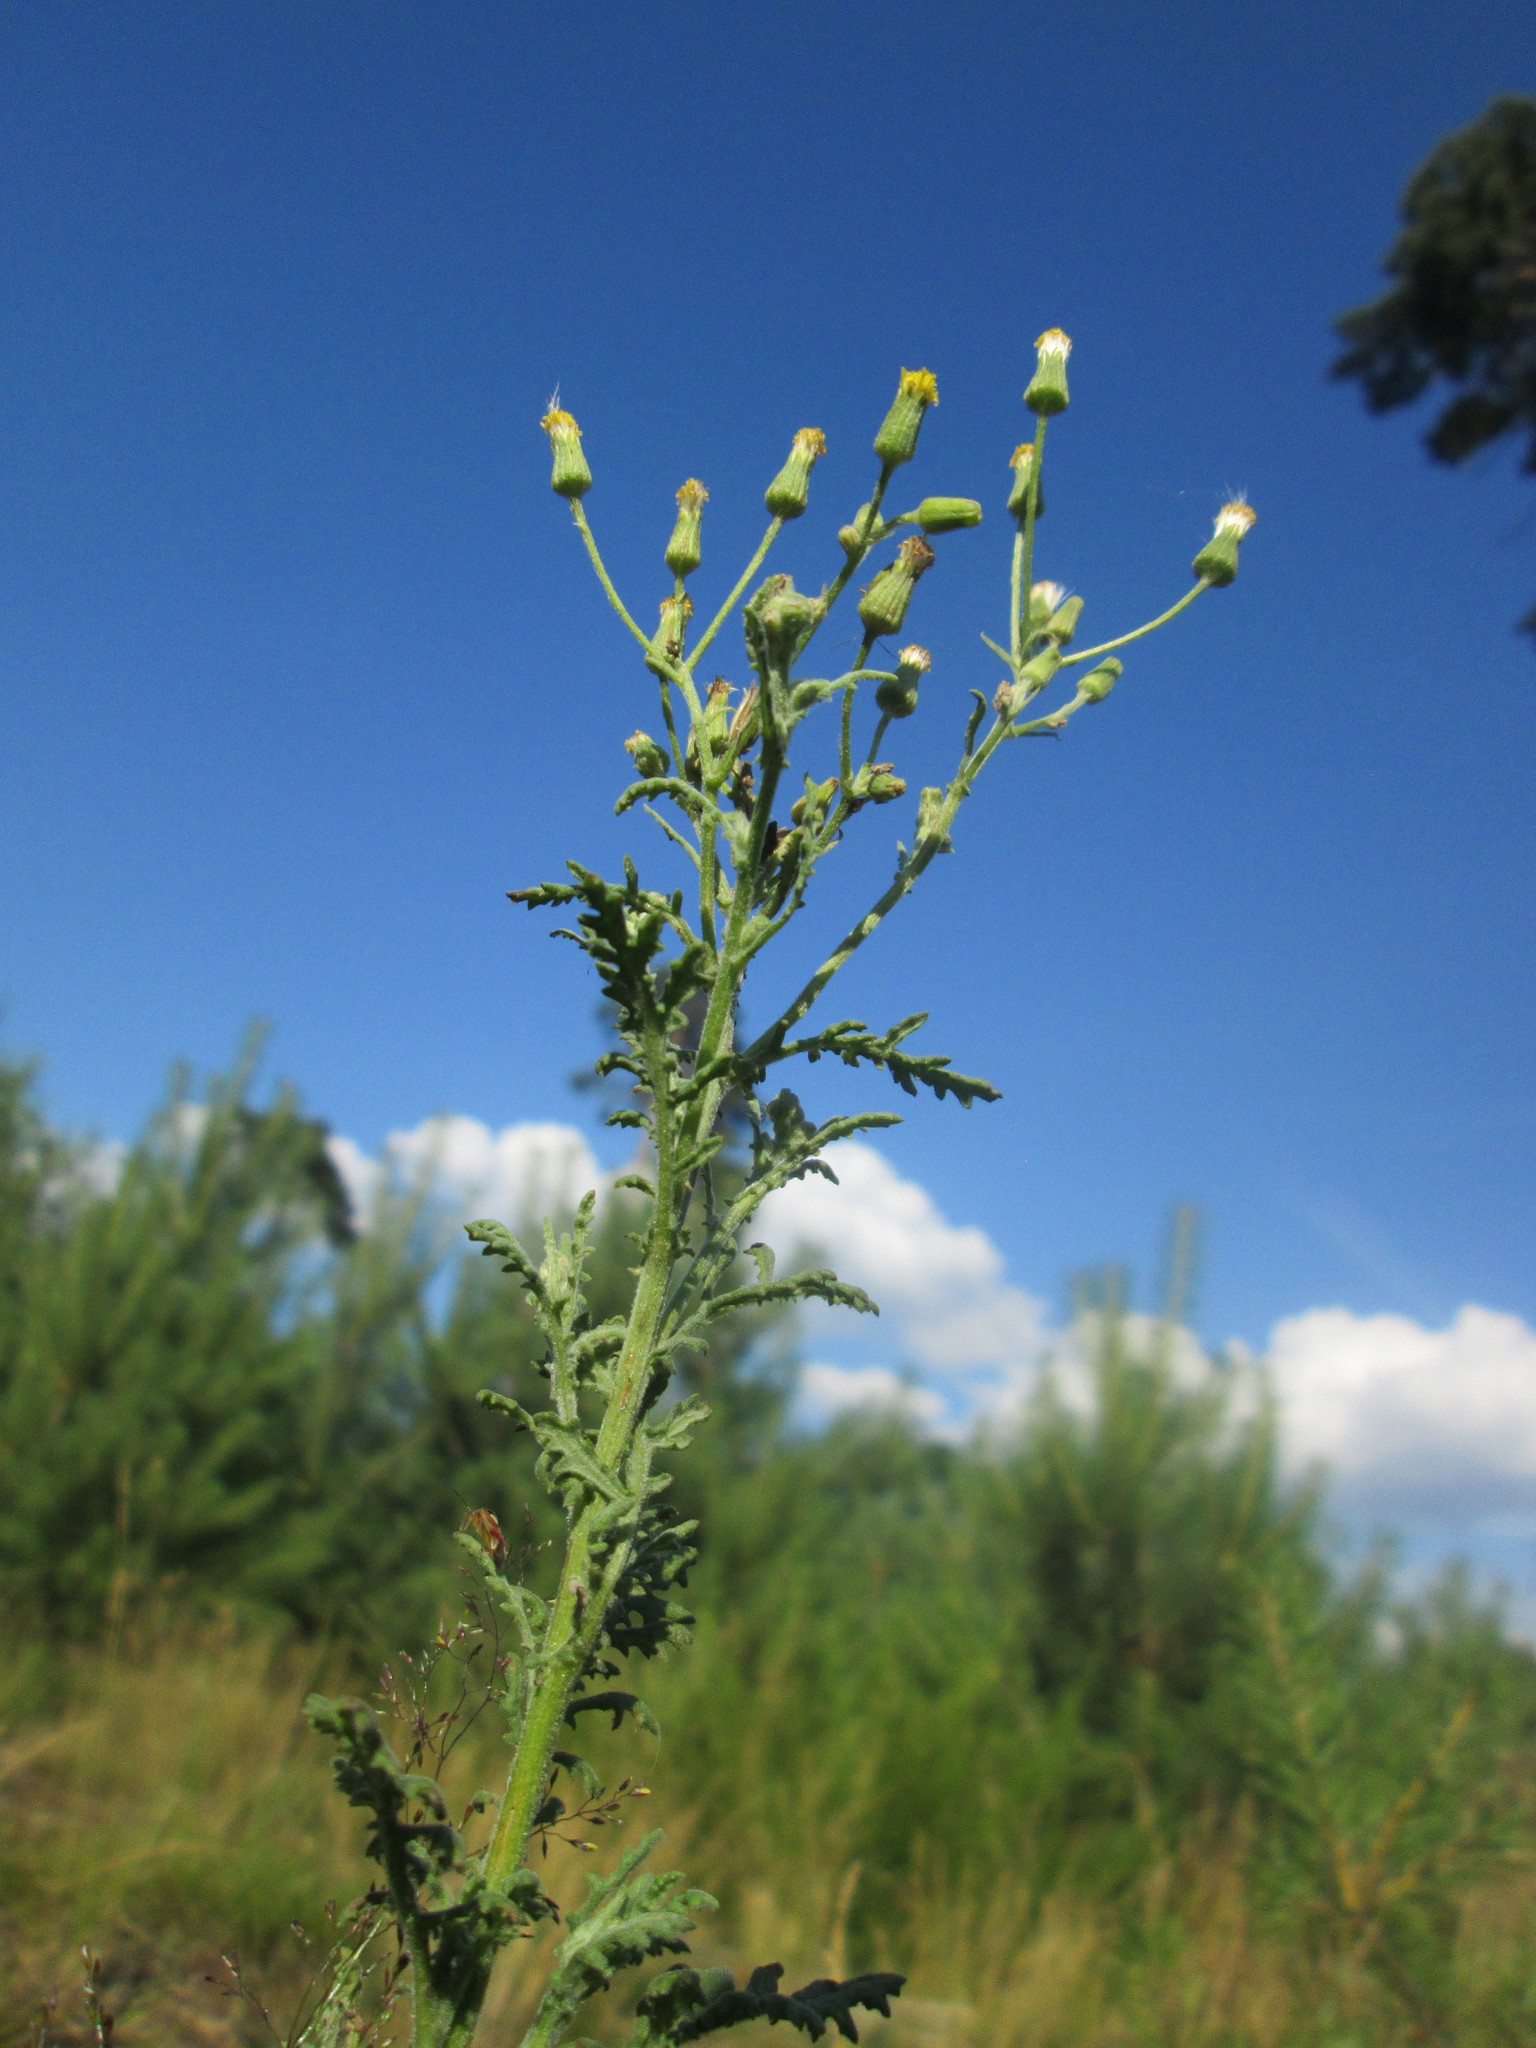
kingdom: Plantae
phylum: Tracheophyta
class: Magnoliopsida
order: Asterales
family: Asteraceae
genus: Senecio
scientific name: Senecio sylvaticus
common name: Woodland ragwort
